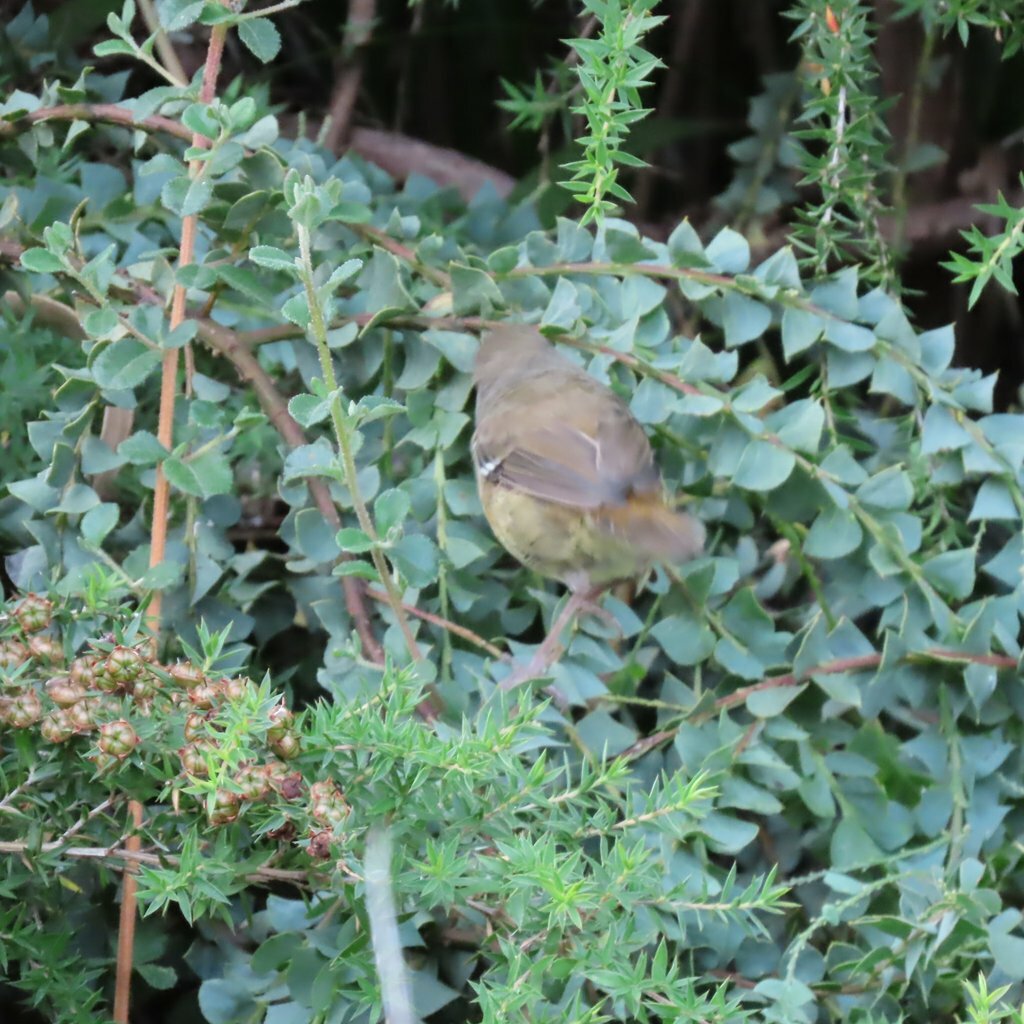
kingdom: Animalia
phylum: Chordata
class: Aves
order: Passeriformes
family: Acanthizidae
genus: Sericornis
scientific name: Sericornis frontalis
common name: White-browed scrubwren
